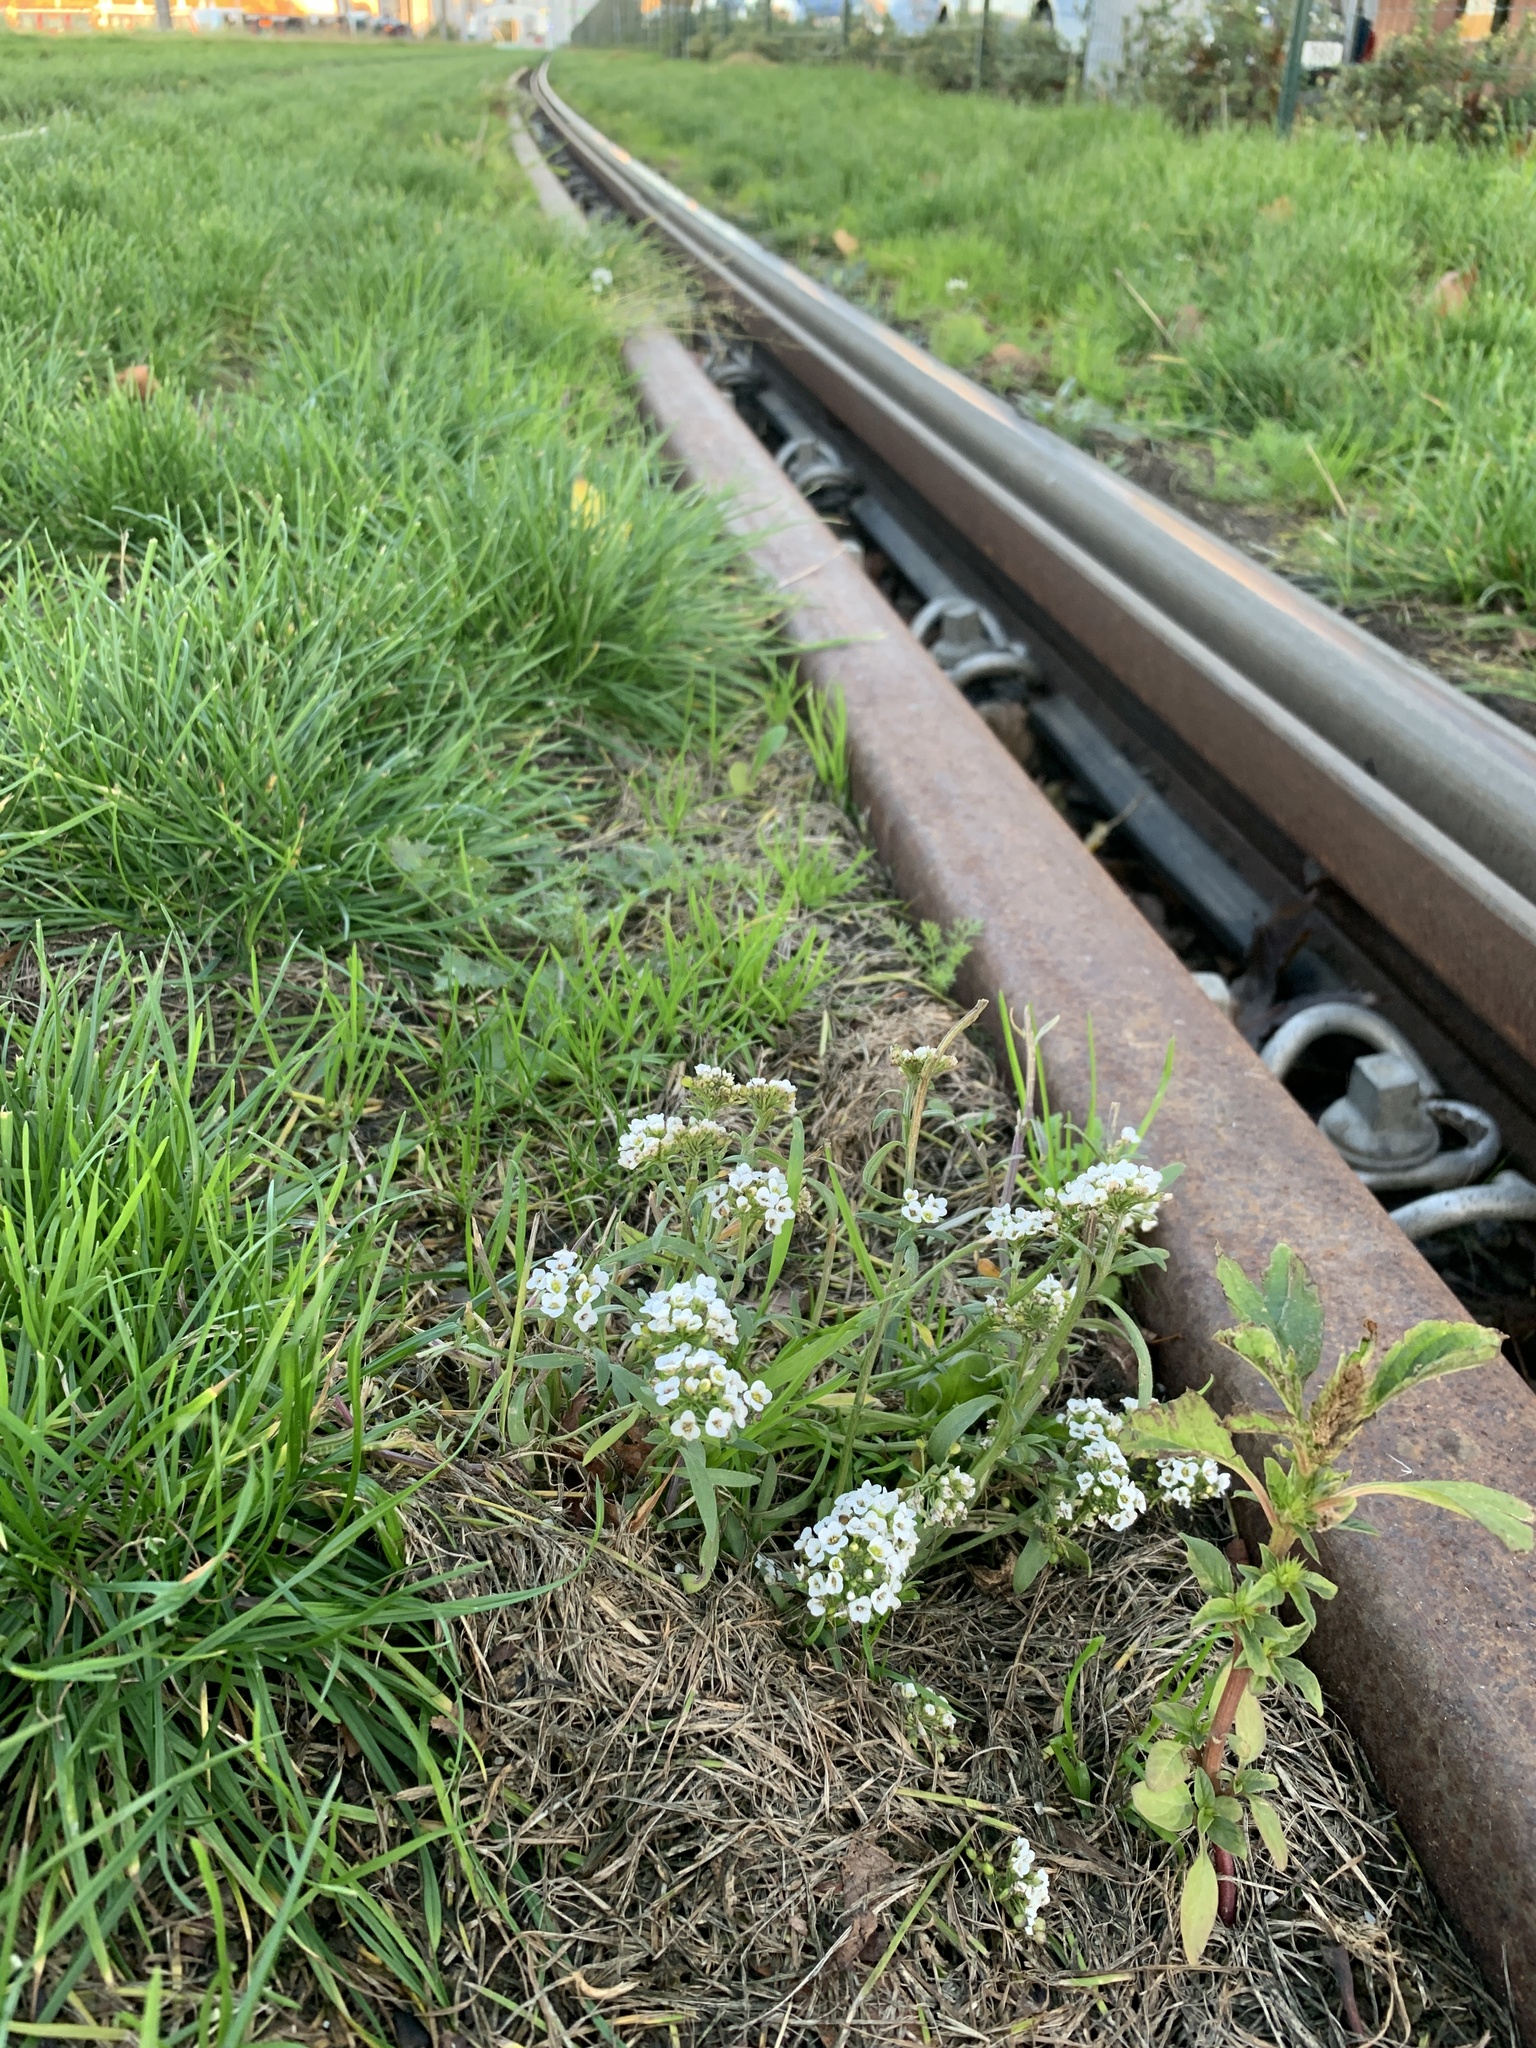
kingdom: Plantae
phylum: Tracheophyta
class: Magnoliopsida
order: Brassicales
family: Brassicaceae
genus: Lobularia
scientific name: Lobularia maritima
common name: Sweet alison
